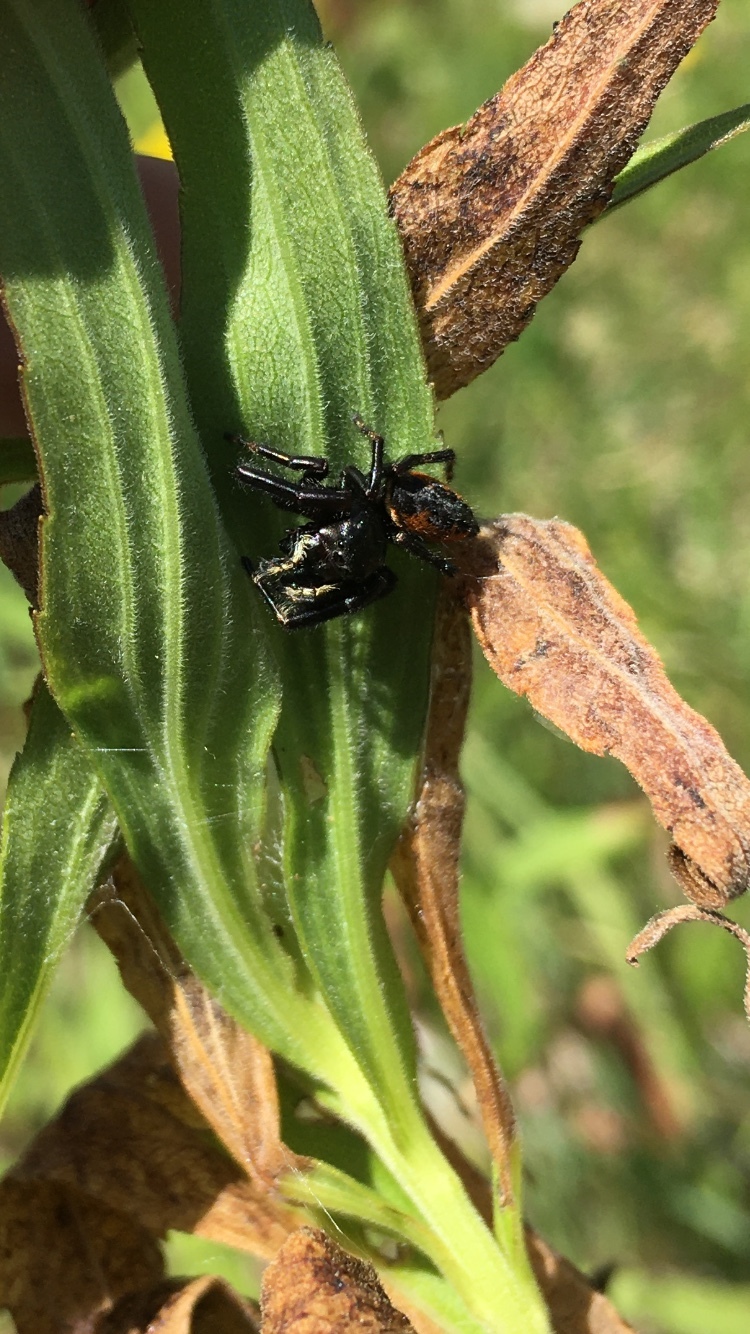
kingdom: Animalia
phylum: Arthropoda
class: Arachnida
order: Araneae
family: Salticidae
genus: Phidippus
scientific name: Phidippus clarus
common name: Brilliant jumping spider
